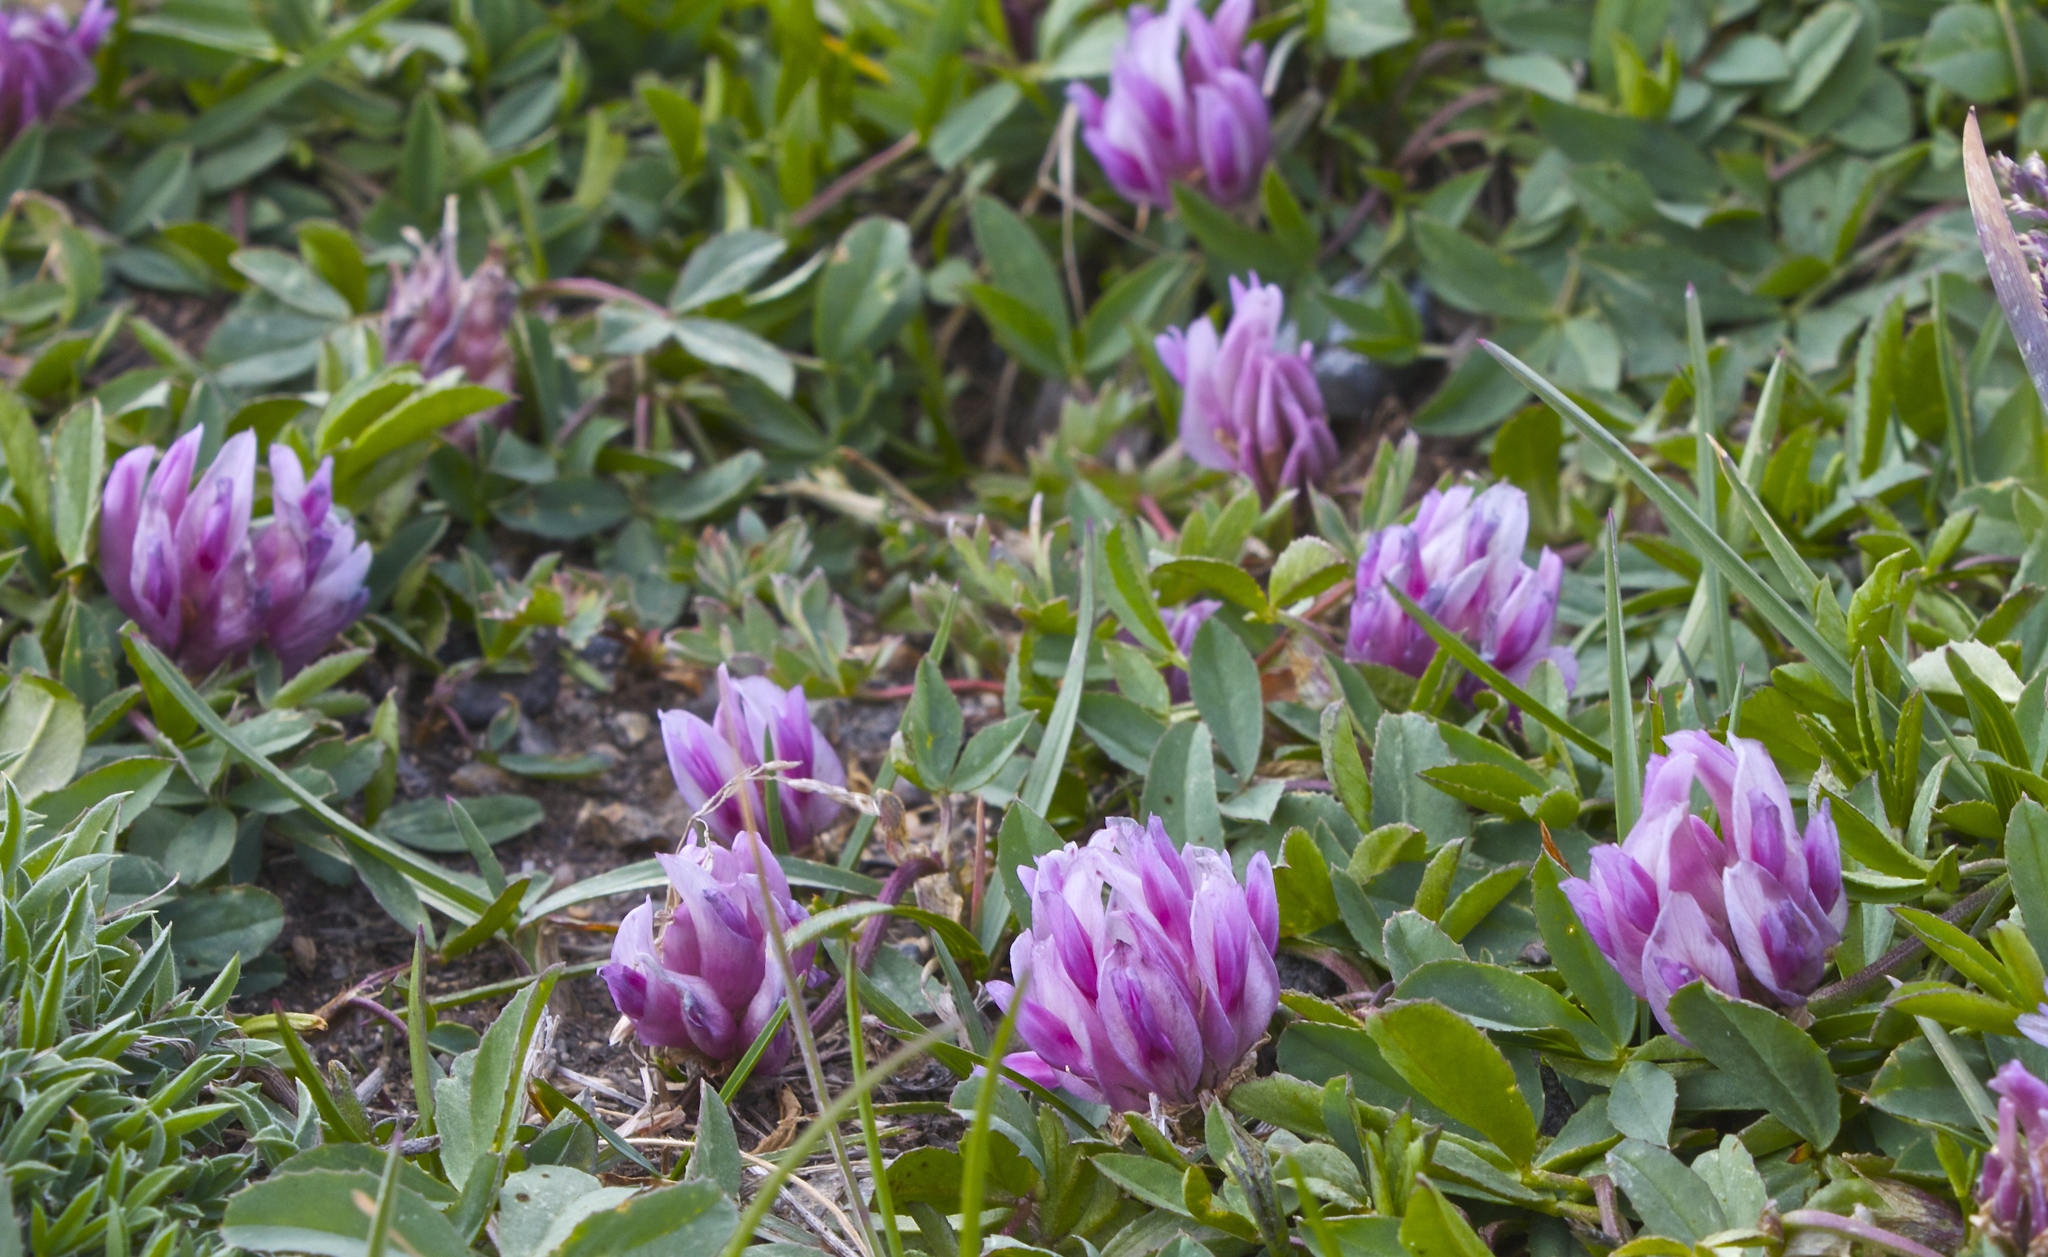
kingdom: Plantae
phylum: Tracheophyta
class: Magnoliopsida
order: Fabales
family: Fabaceae
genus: Trifolium
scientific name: Trifolium parryi
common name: Parry's clover
